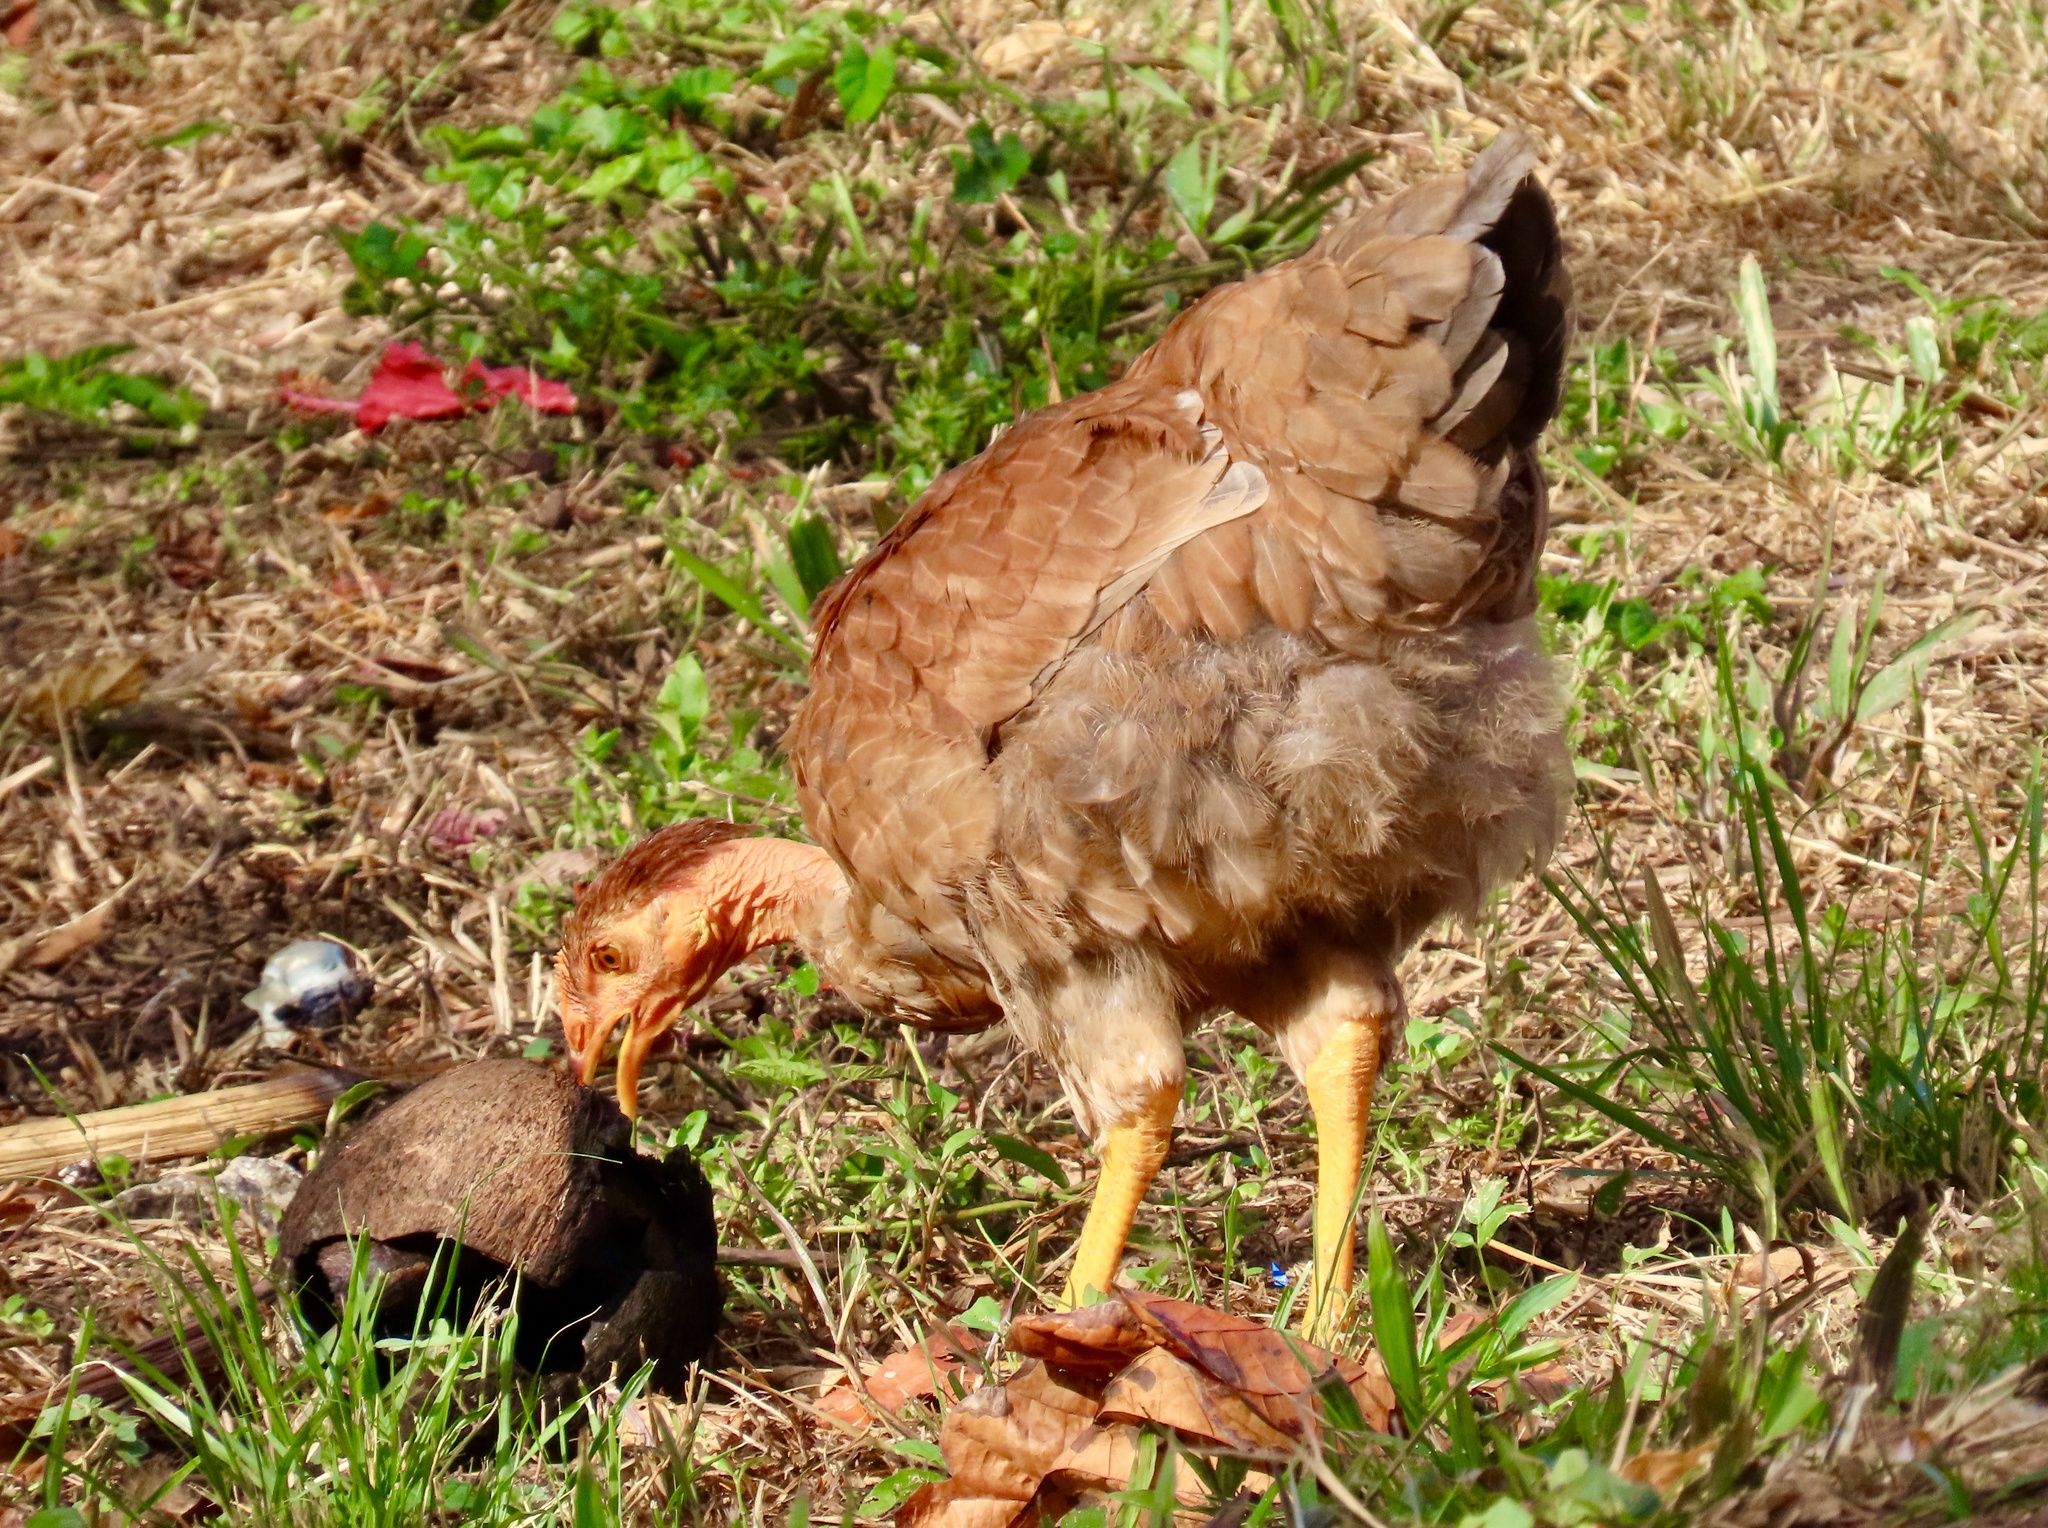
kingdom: Animalia
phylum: Chordata
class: Aves
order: Galliformes
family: Phasianidae
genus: Gallus
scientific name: Gallus gallus
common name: Red junglefowl
